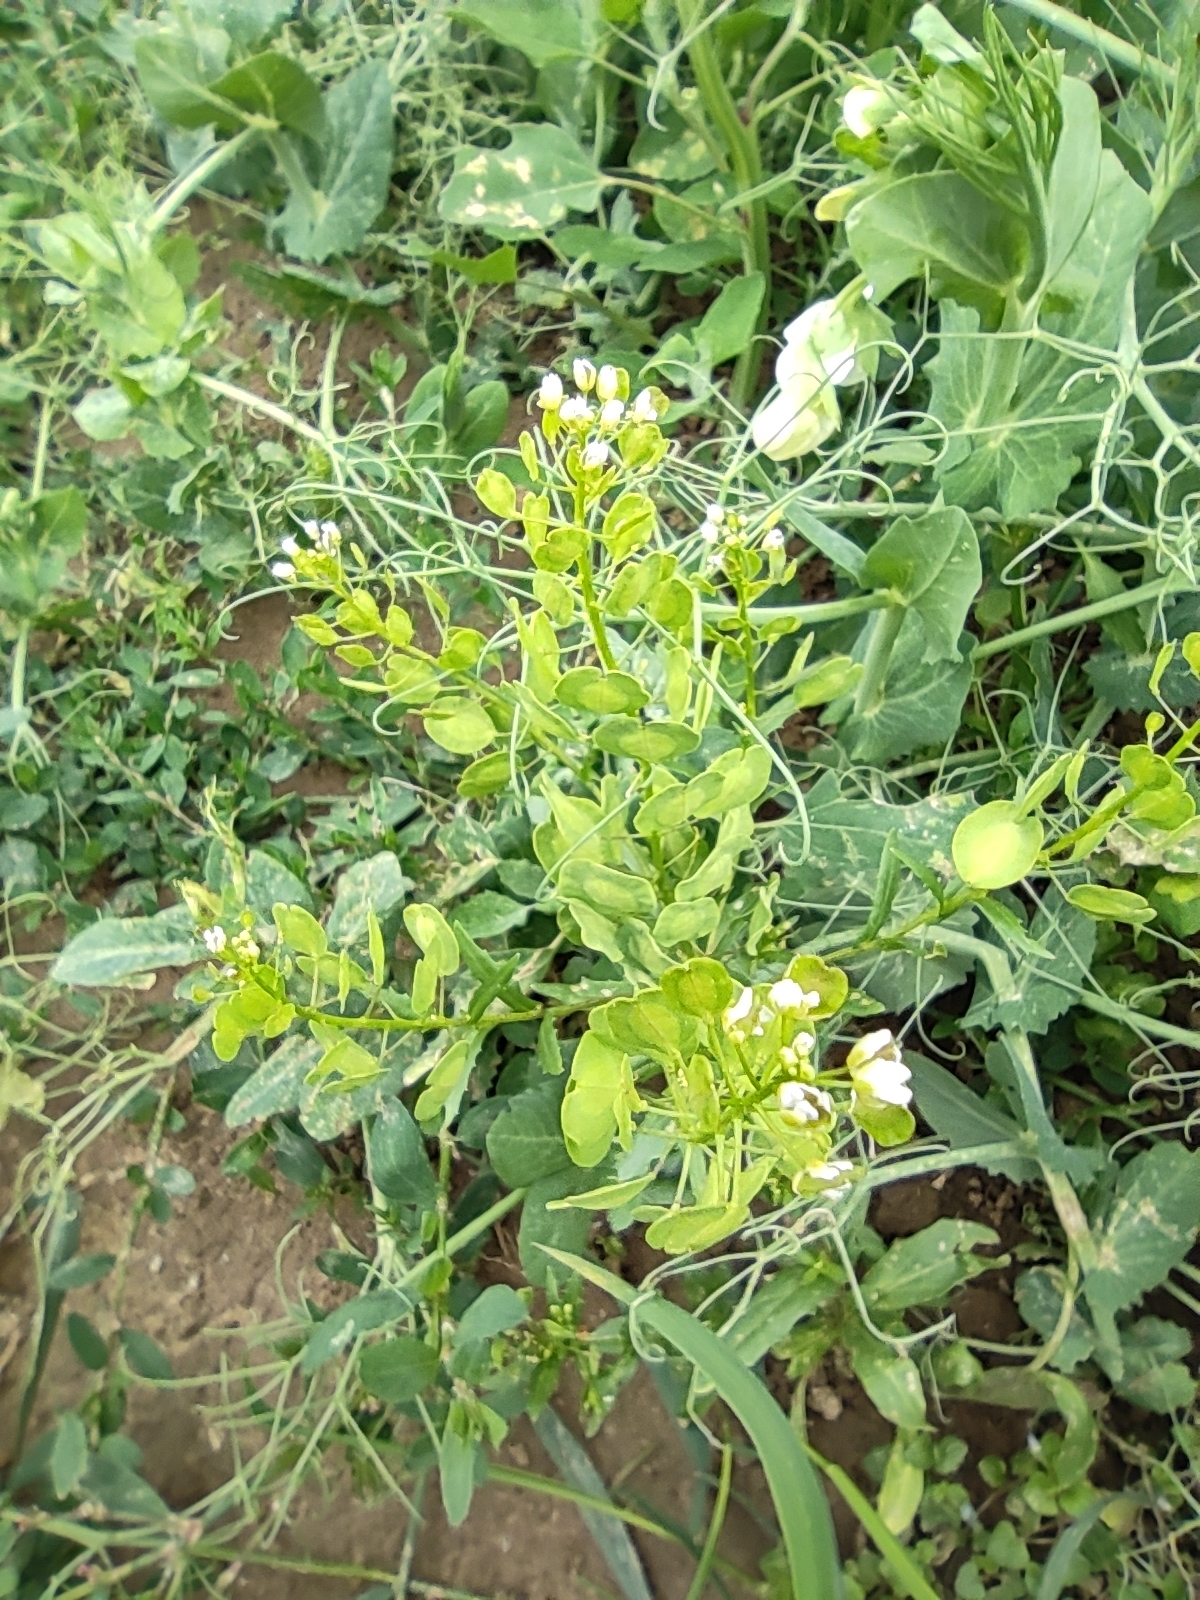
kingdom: Plantae
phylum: Tracheophyta
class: Magnoliopsida
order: Brassicales
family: Brassicaceae
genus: Thlaspi
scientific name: Thlaspi arvense
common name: Field pennycress
